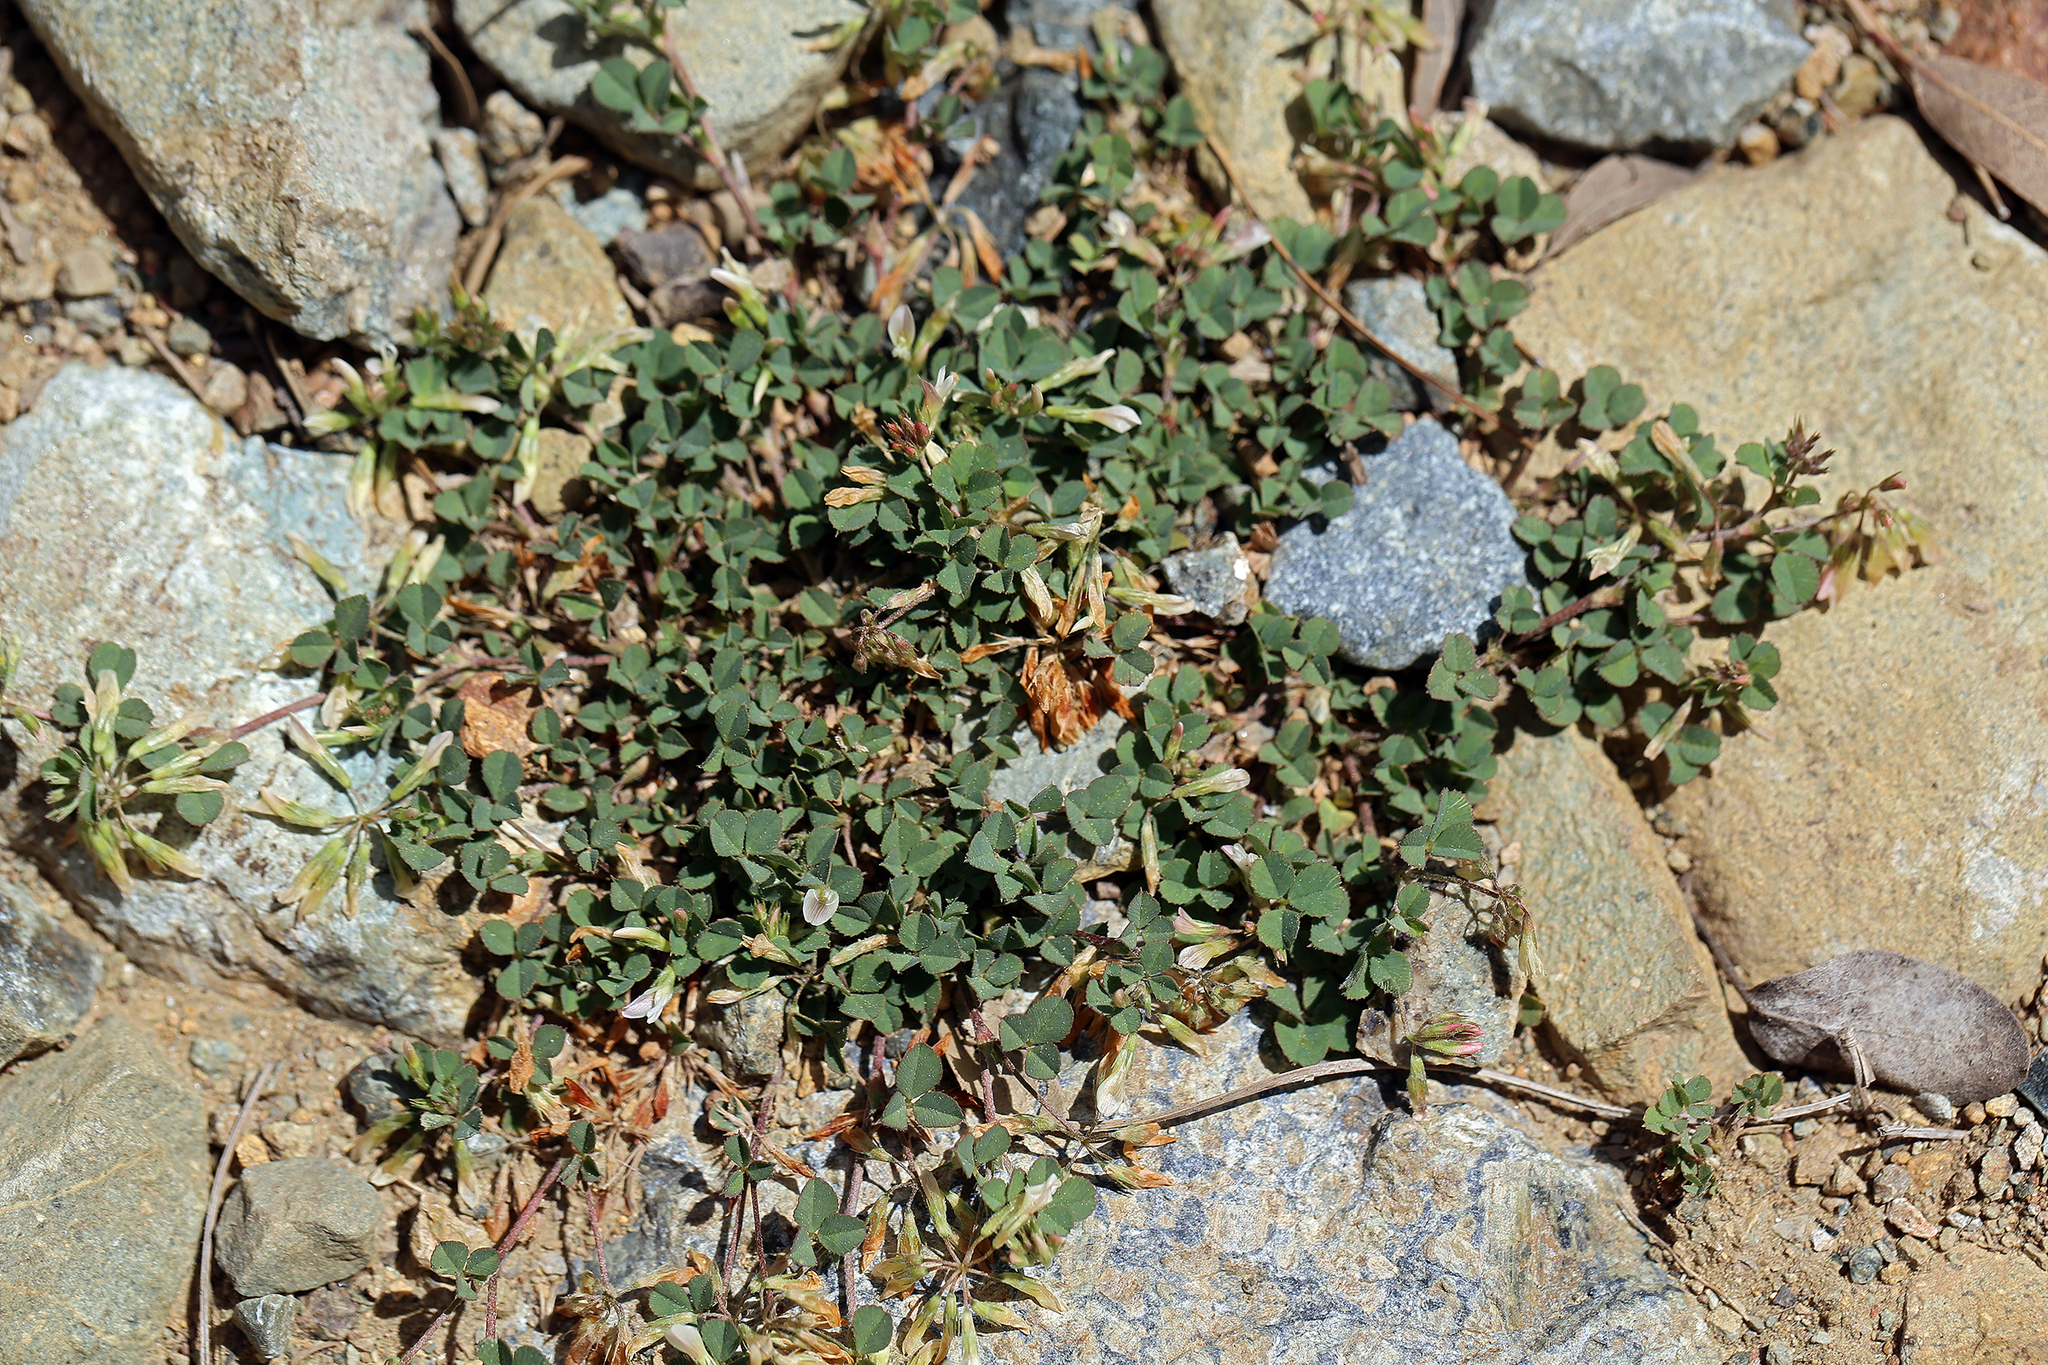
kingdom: Plantae
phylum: Tracheophyta
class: Magnoliopsida
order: Fabales
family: Fabaceae
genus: Trifolium
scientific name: Trifolium breweri
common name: Forest clover
